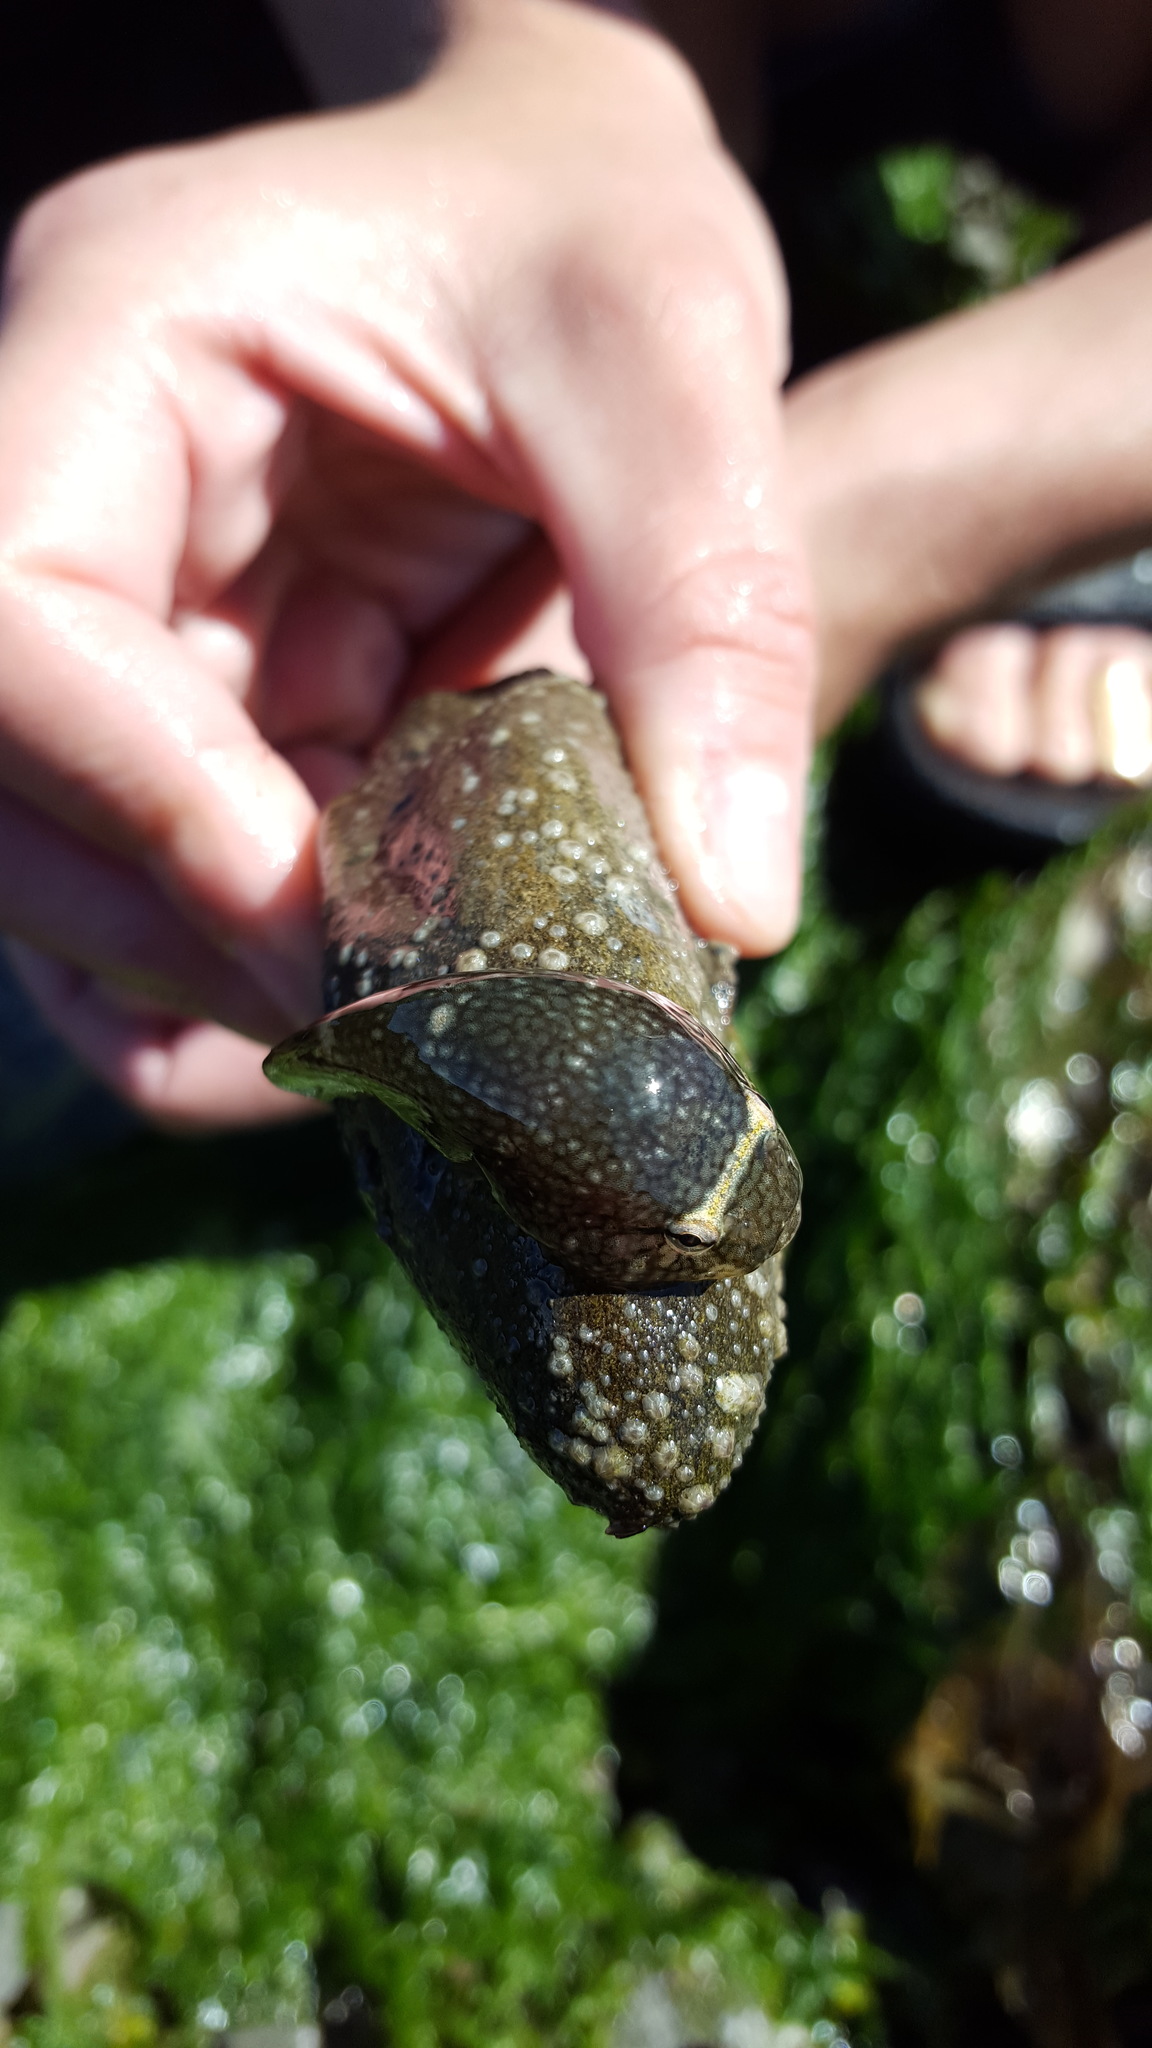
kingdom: Animalia
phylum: Chordata
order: Gobiesociformes
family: Gobiesocidae
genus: Gobiesox
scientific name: Gobiesox maeandricus
